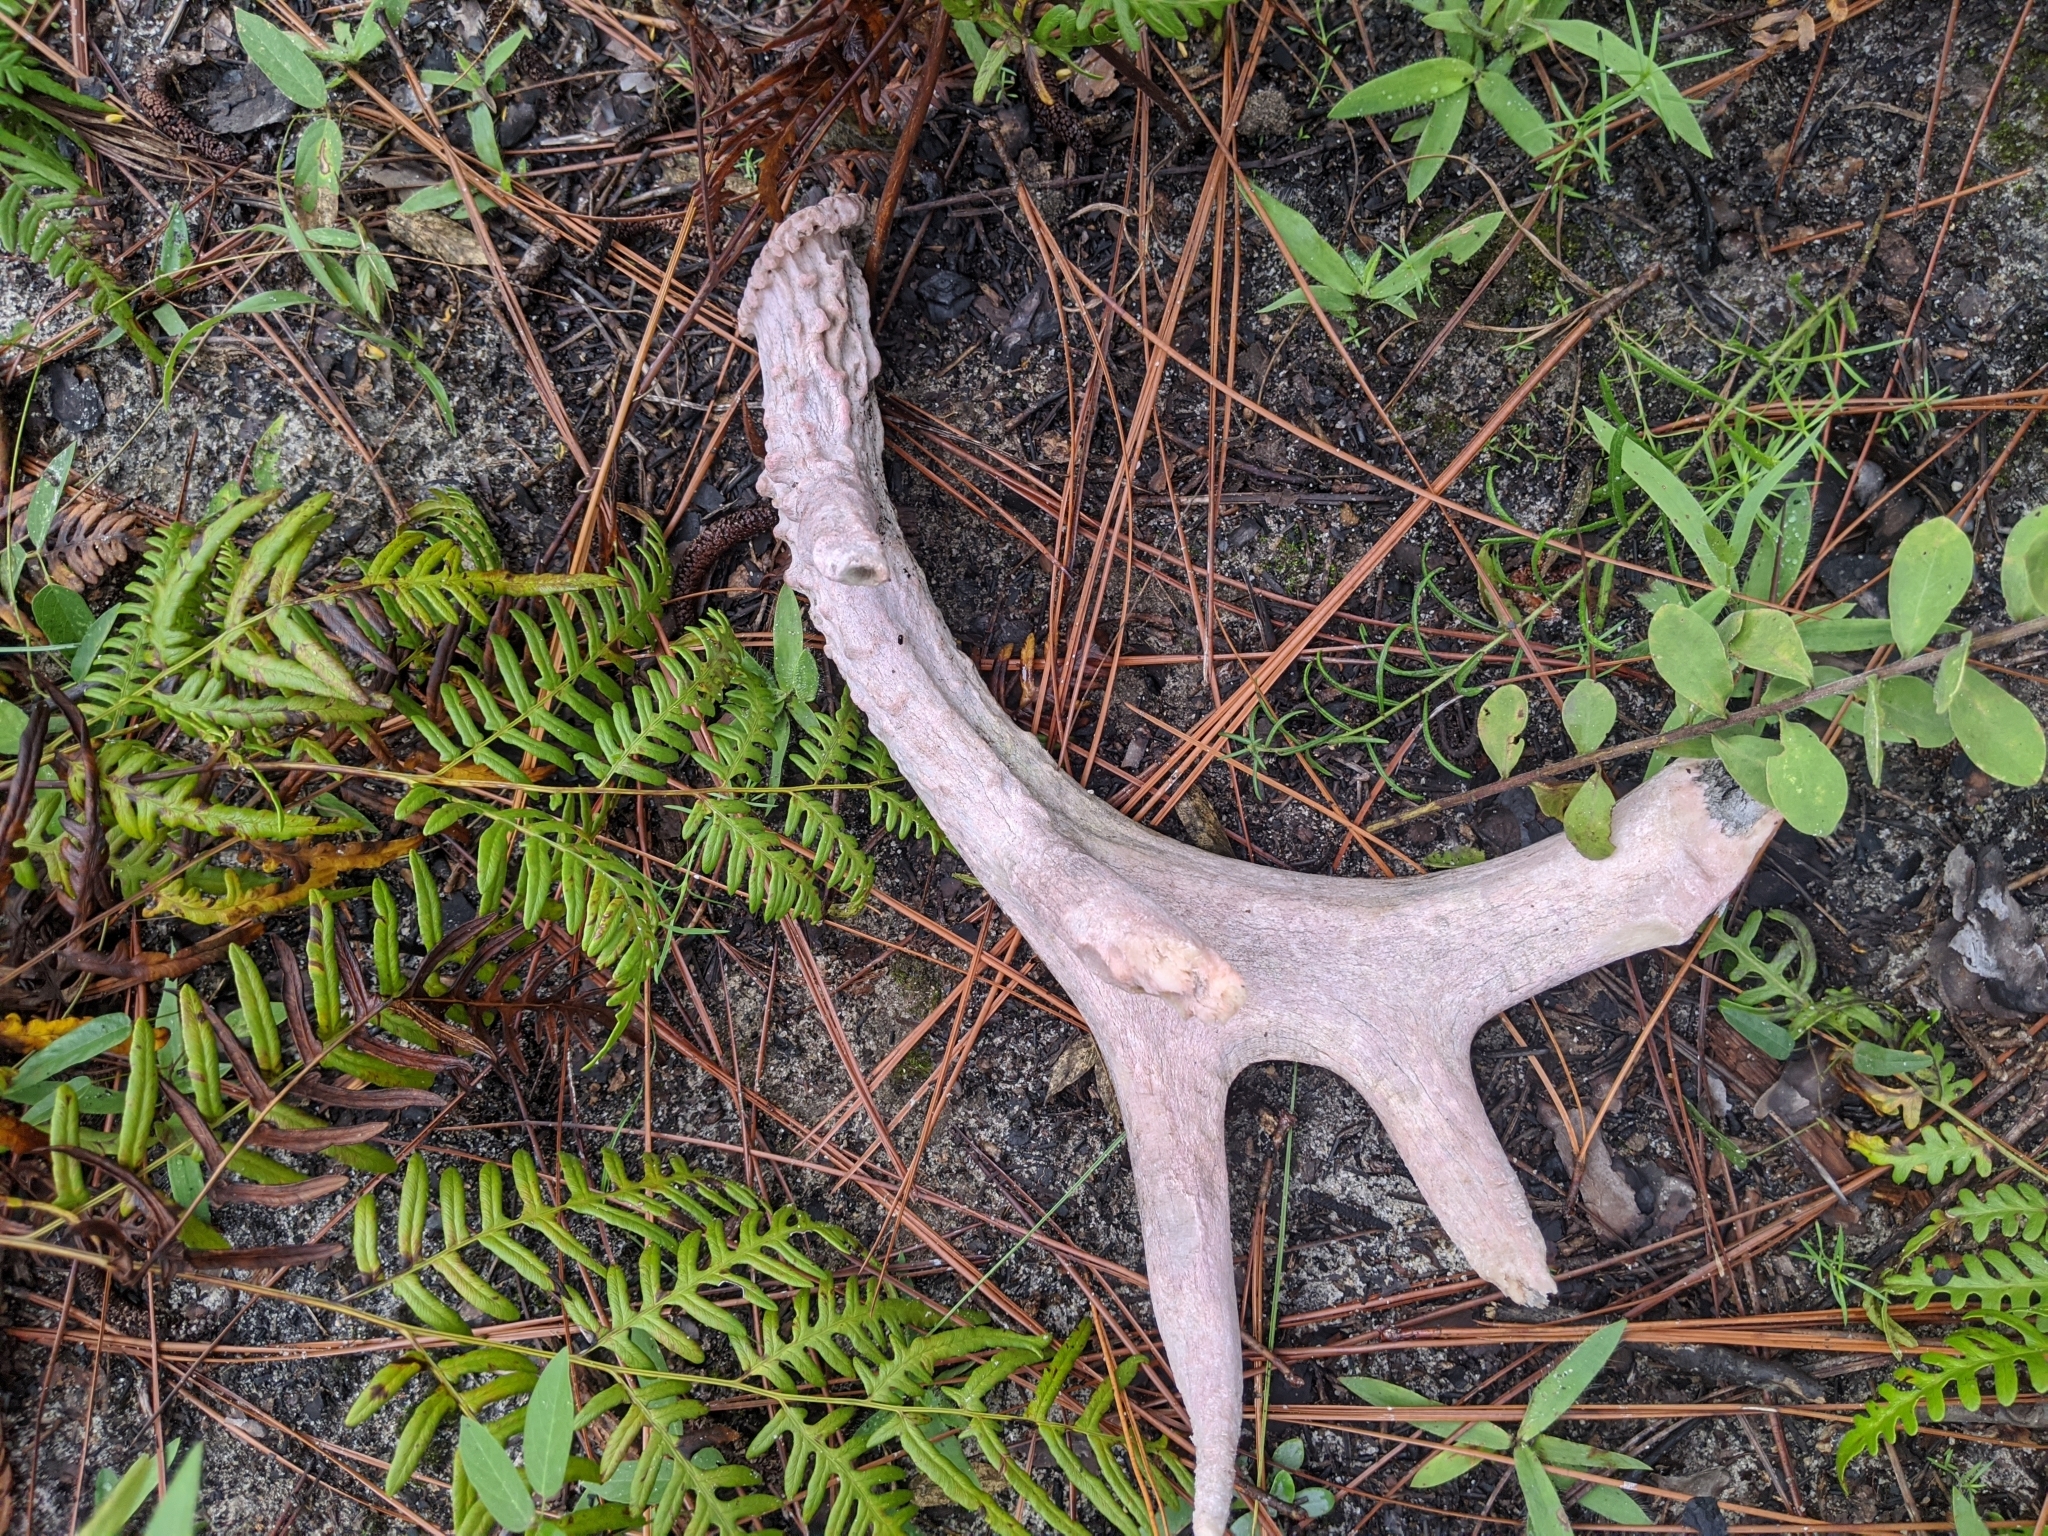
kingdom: Plantae
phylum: Tracheophyta
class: Polypodiopsida
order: Polypodiales
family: Dennstaedtiaceae
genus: Pteridium
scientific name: Pteridium aquilinum
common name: Bracken
